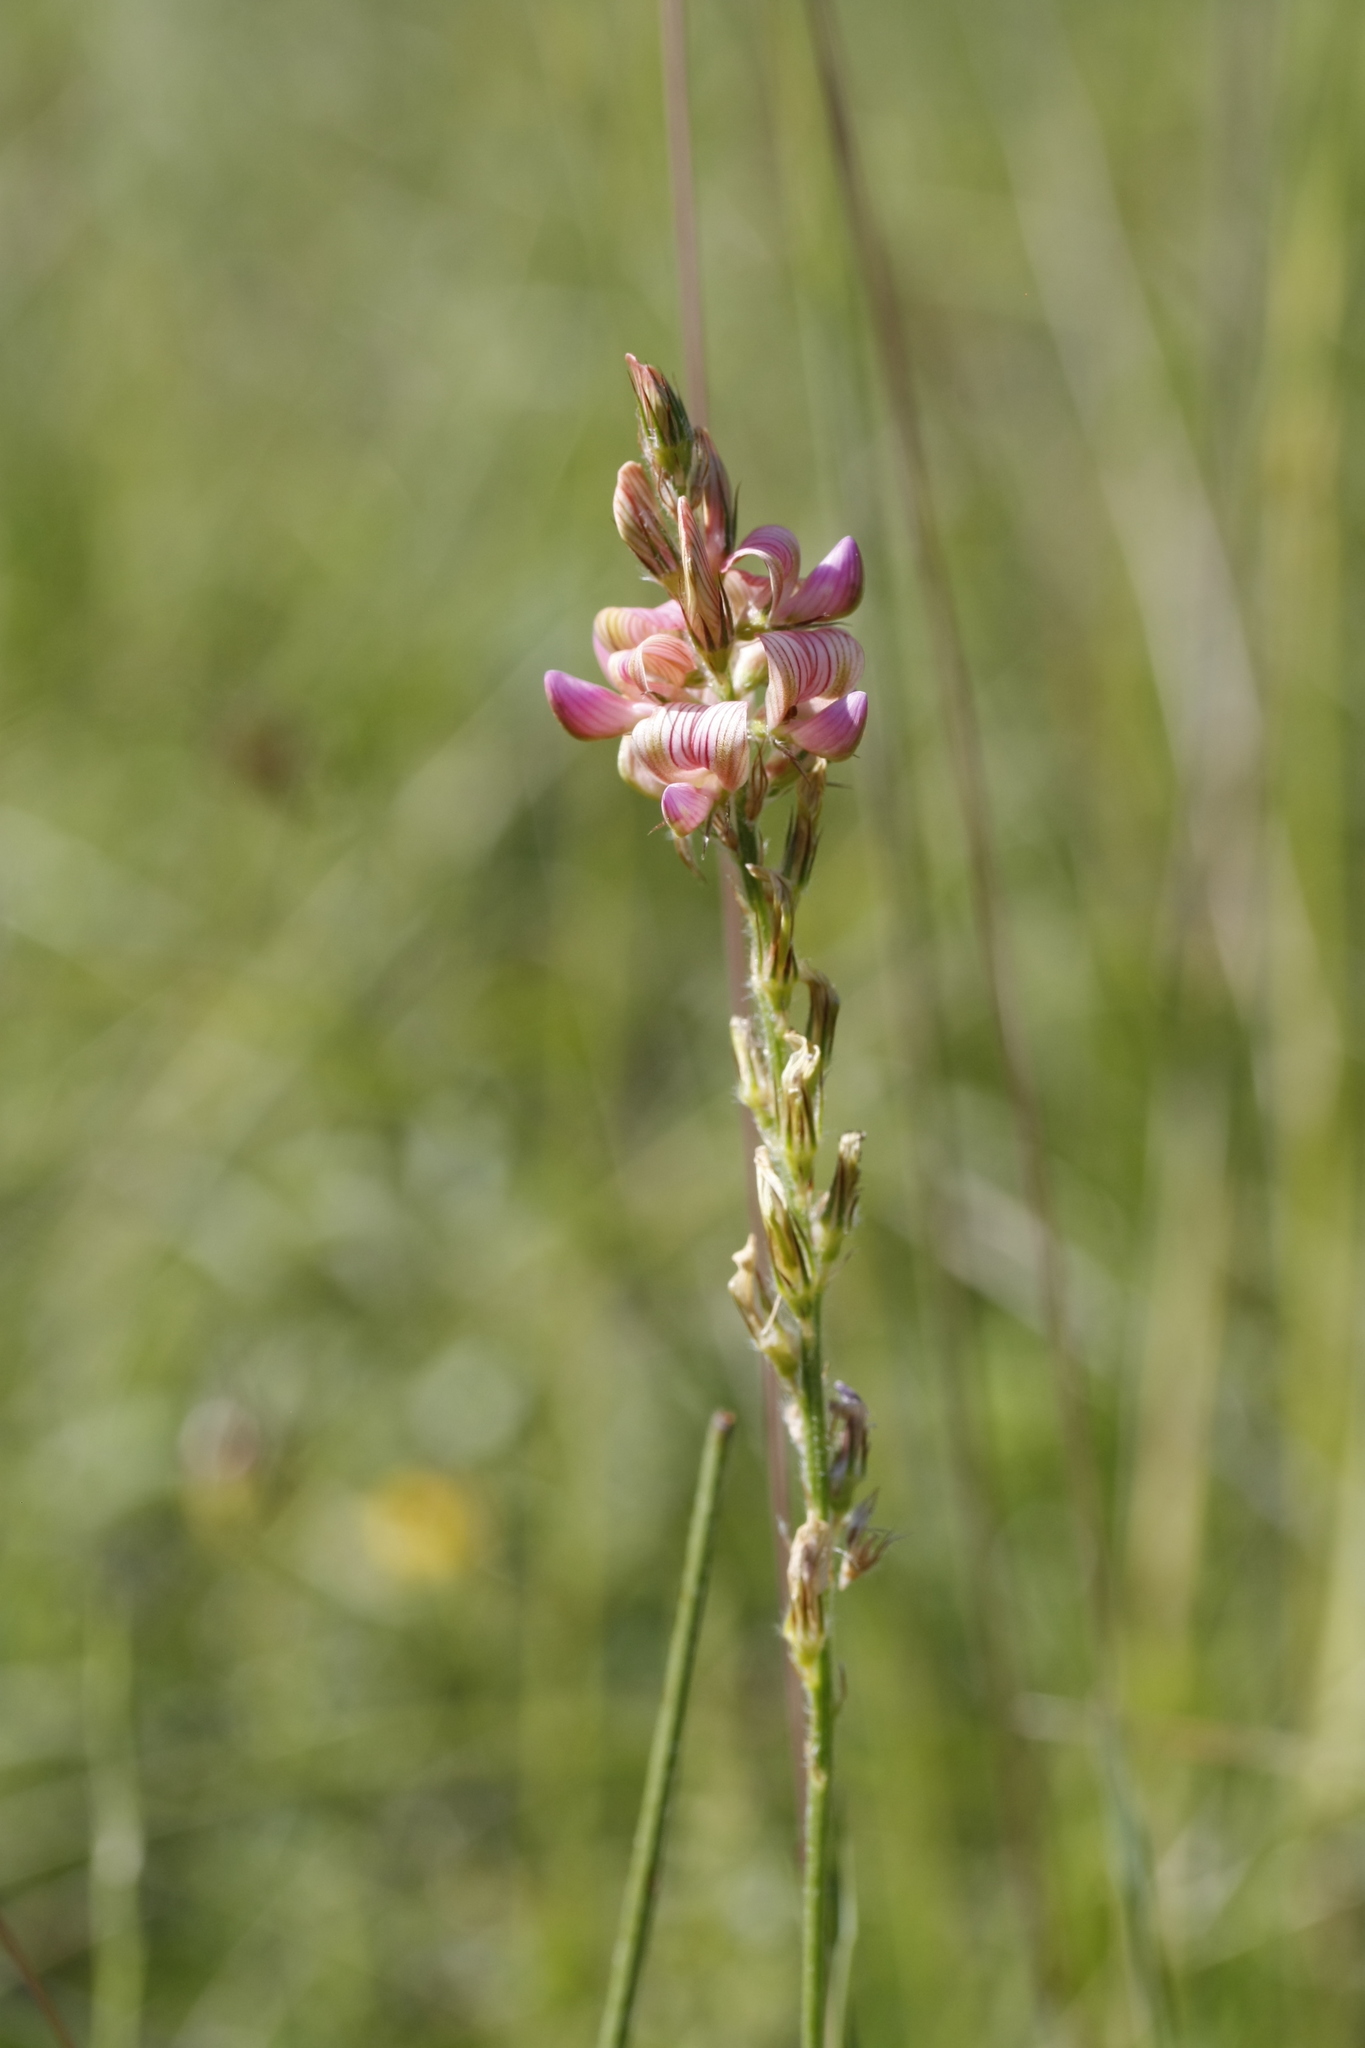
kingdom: Plantae
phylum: Tracheophyta
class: Magnoliopsida
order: Fabales
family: Fabaceae
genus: Onobrychis
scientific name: Onobrychis viciifolia
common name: Sainfoin
